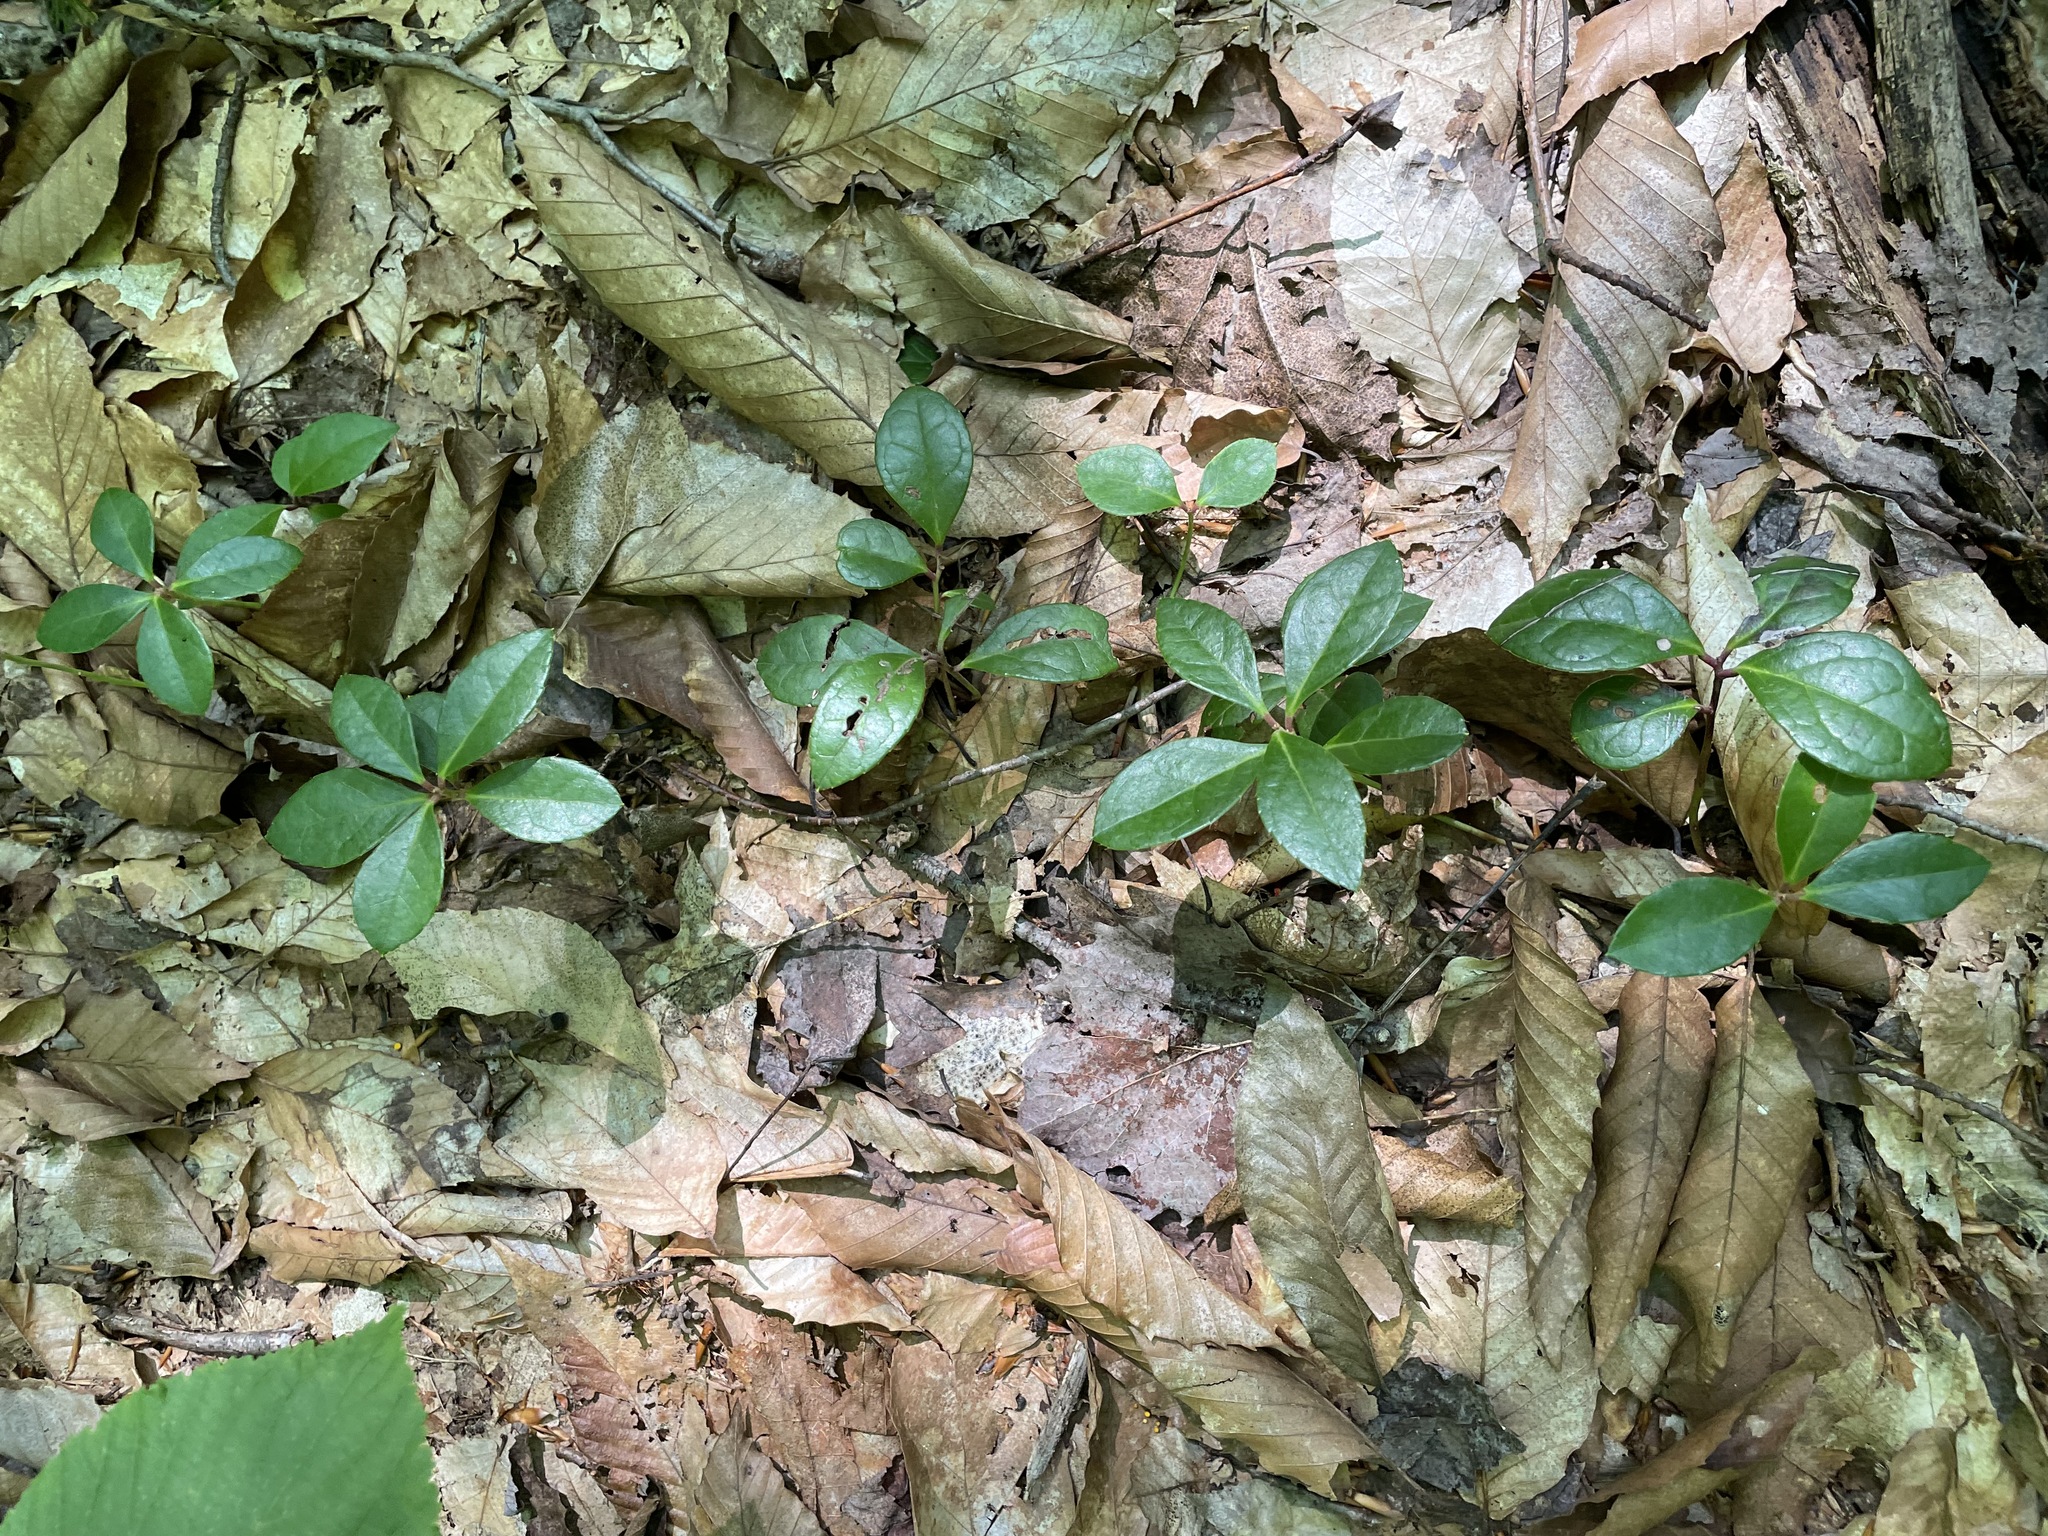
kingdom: Plantae
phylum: Tracheophyta
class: Magnoliopsida
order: Ericales
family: Ericaceae
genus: Gaultheria
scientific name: Gaultheria procumbens
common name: Checkerberry
